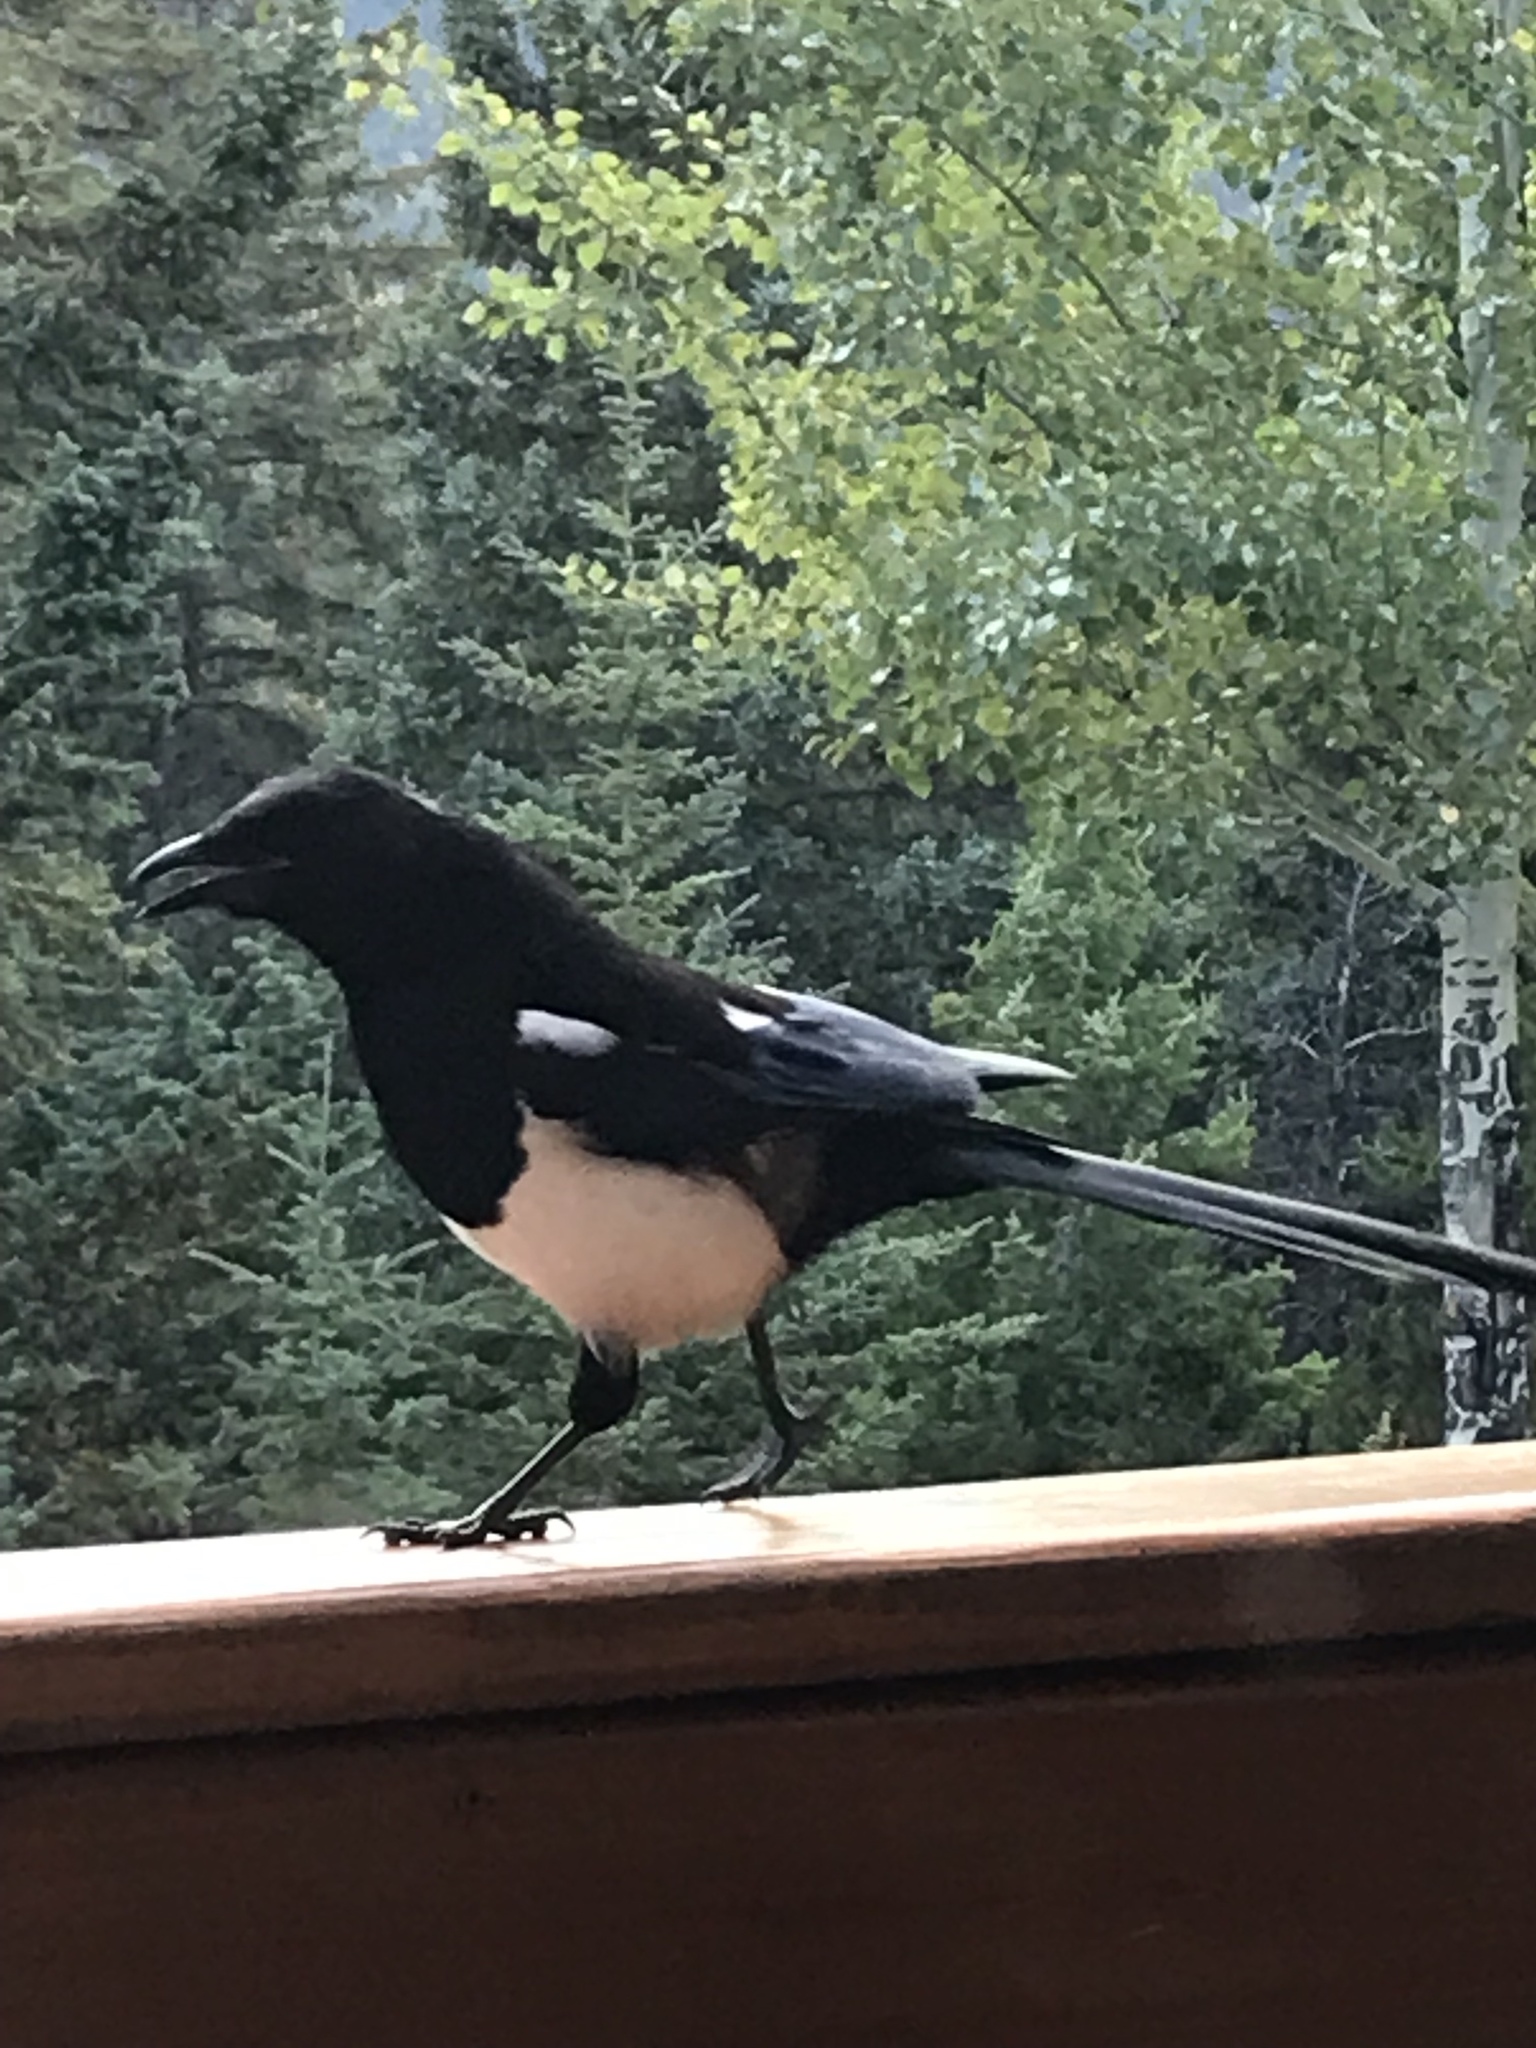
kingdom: Animalia
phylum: Chordata
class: Aves
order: Passeriformes
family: Corvidae
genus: Pica
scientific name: Pica hudsonia
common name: Black-billed magpie
